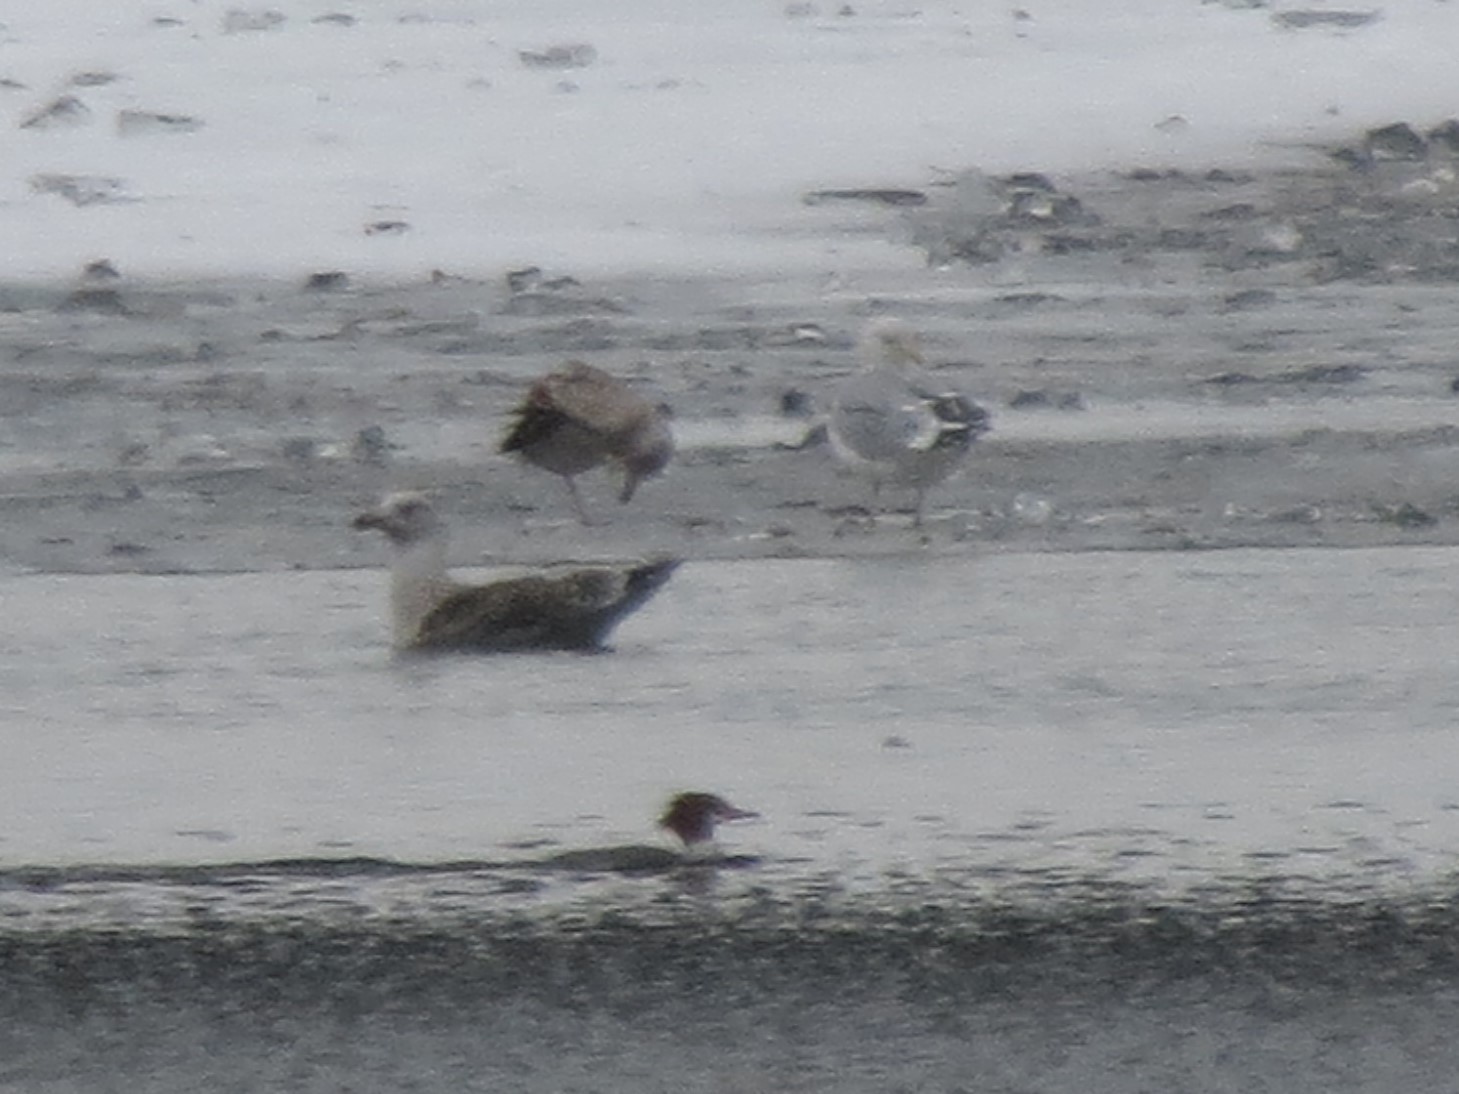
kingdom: Animalia
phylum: Chordata
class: Aves
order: Charadriiformes
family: Laridae
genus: Larus
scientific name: Larus marinus
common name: Great black-backed gull
